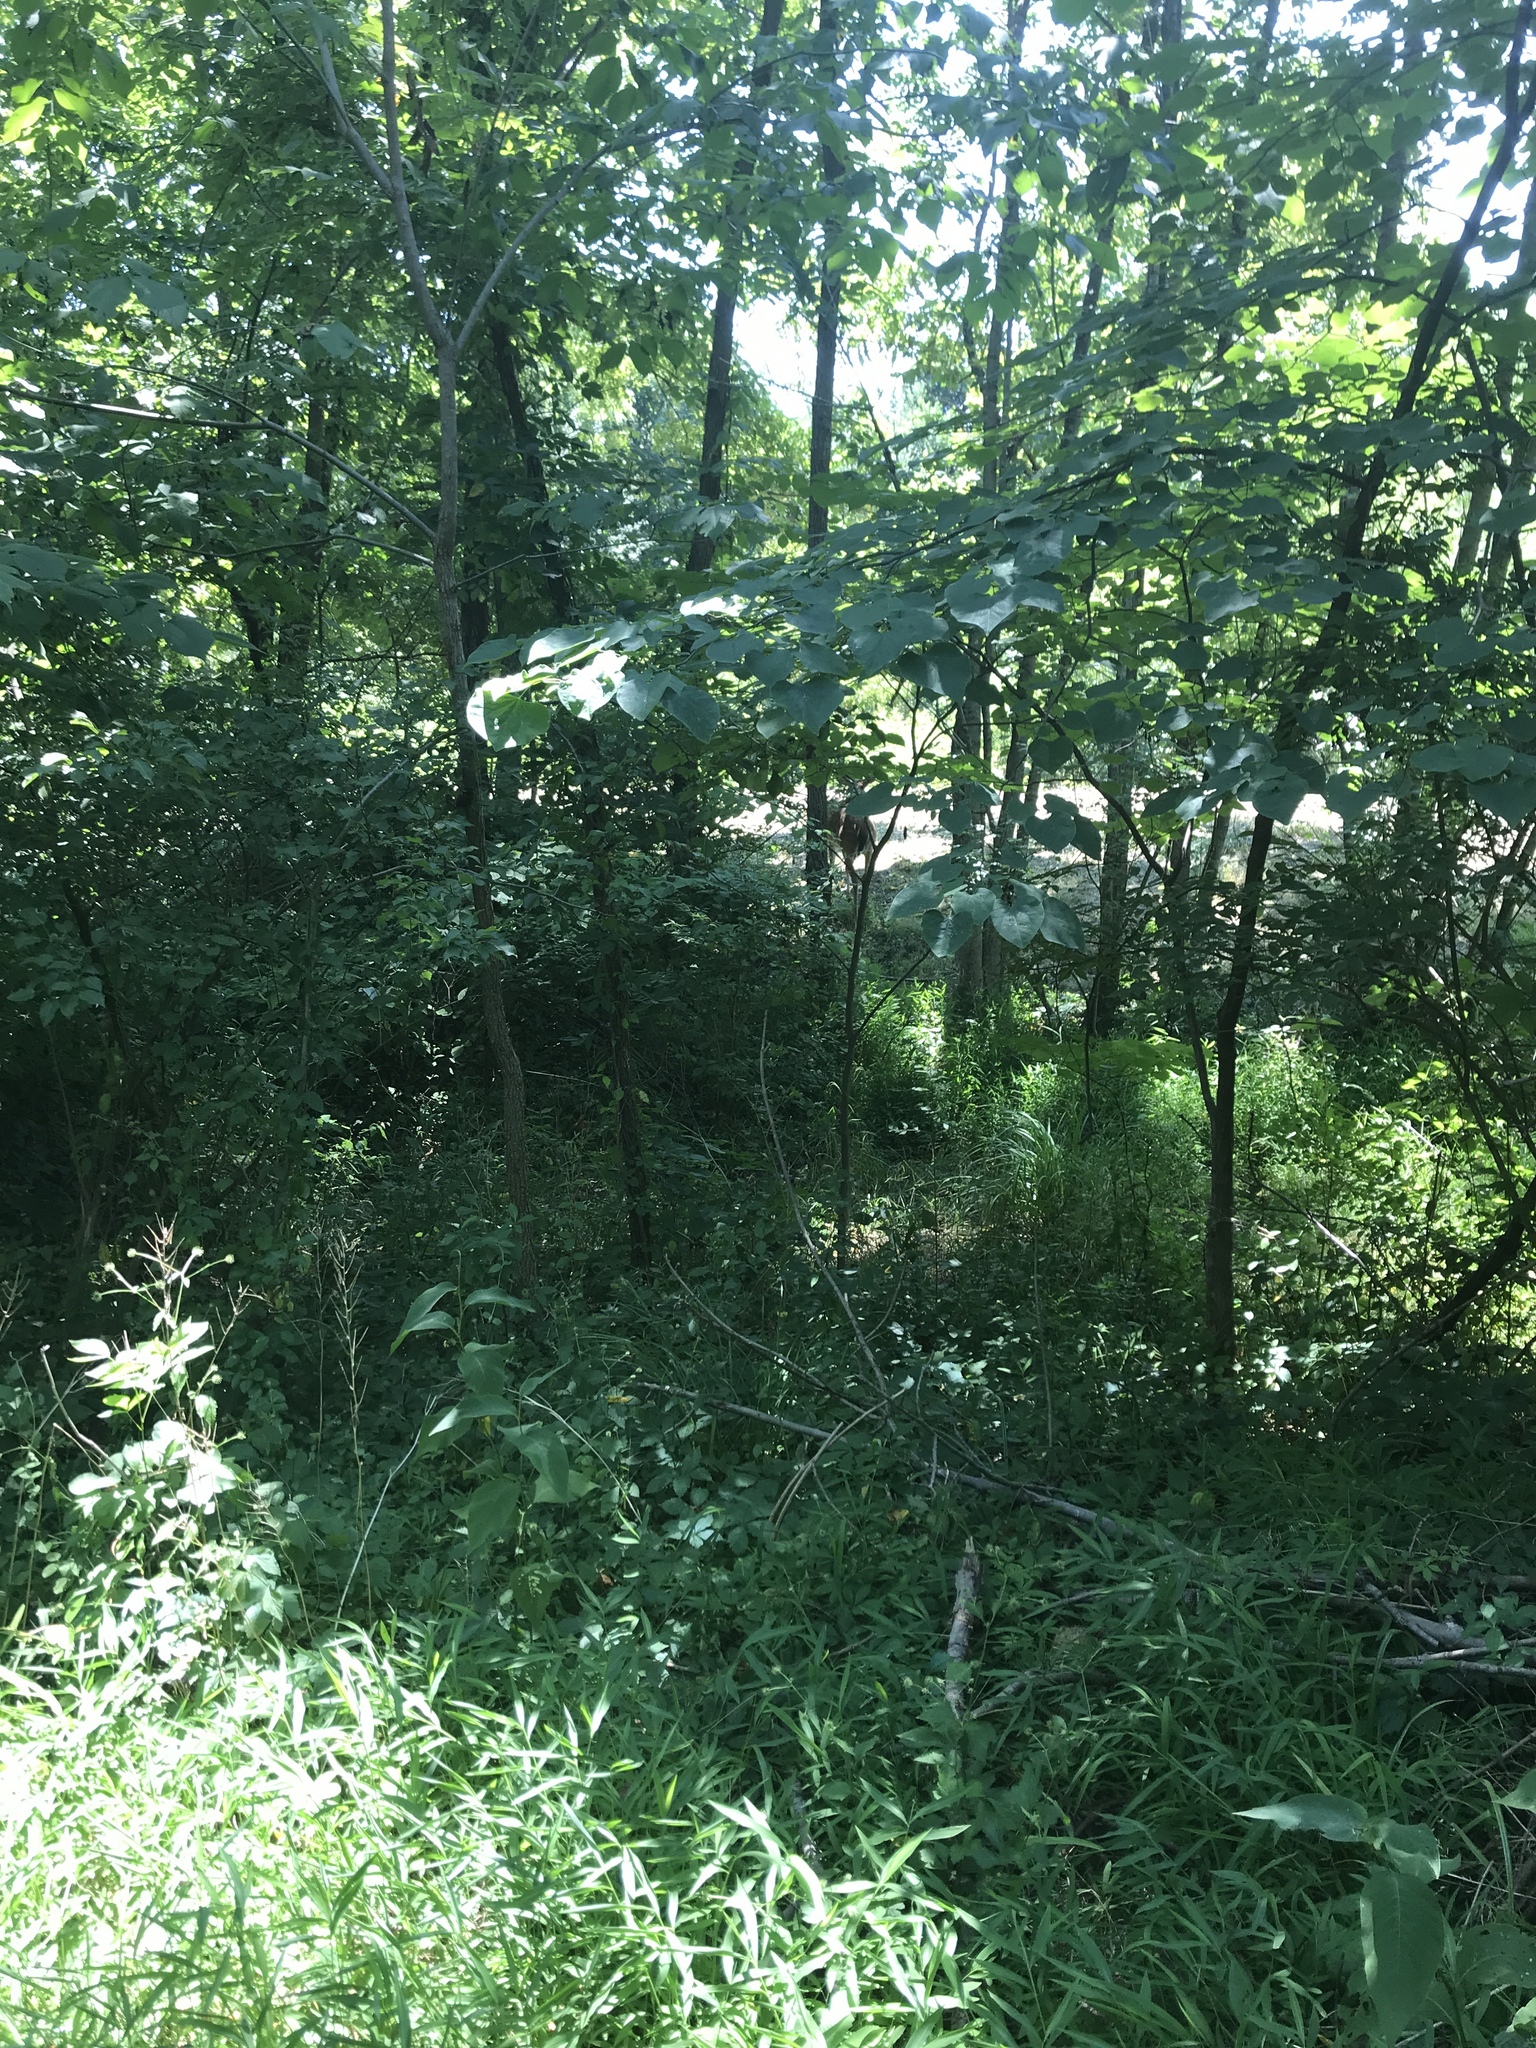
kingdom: Animalia
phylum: Chordata
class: Mammalia
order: Artiodactyla
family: Cervidae
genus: Odocoileus
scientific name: Odocoileus virginianus
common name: White-tailed deer
